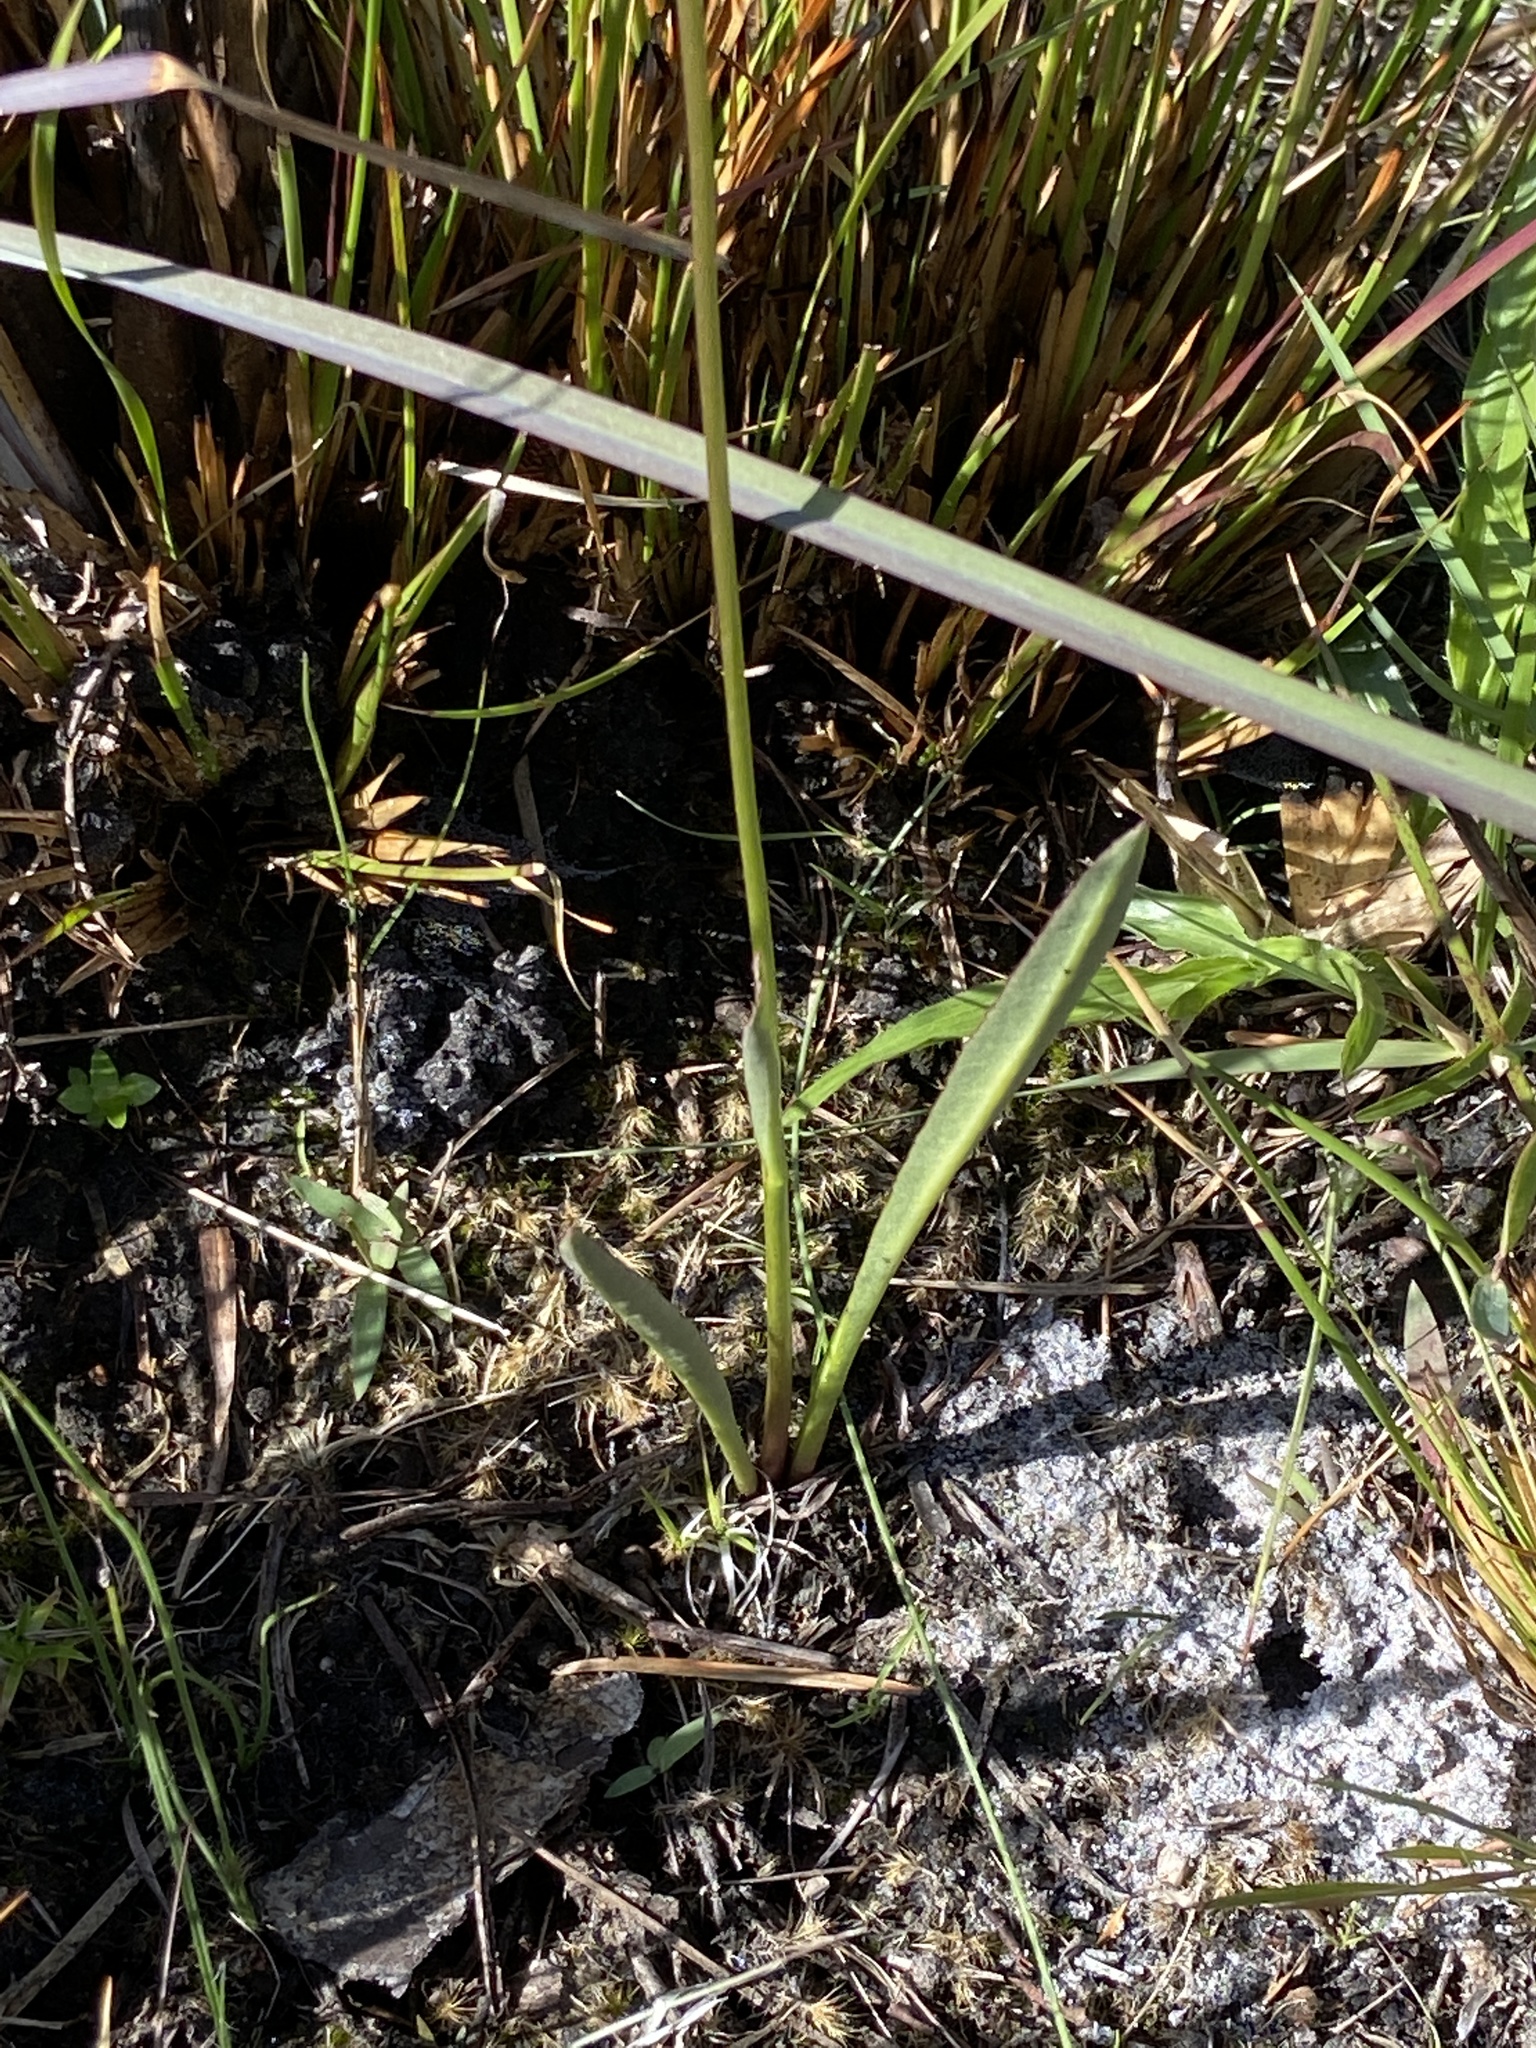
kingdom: Plantae
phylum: Tracheophyta
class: Magnoliopsida
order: Asterales
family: Campanulaceae
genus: Lobelia
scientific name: Lobelia paludosa
